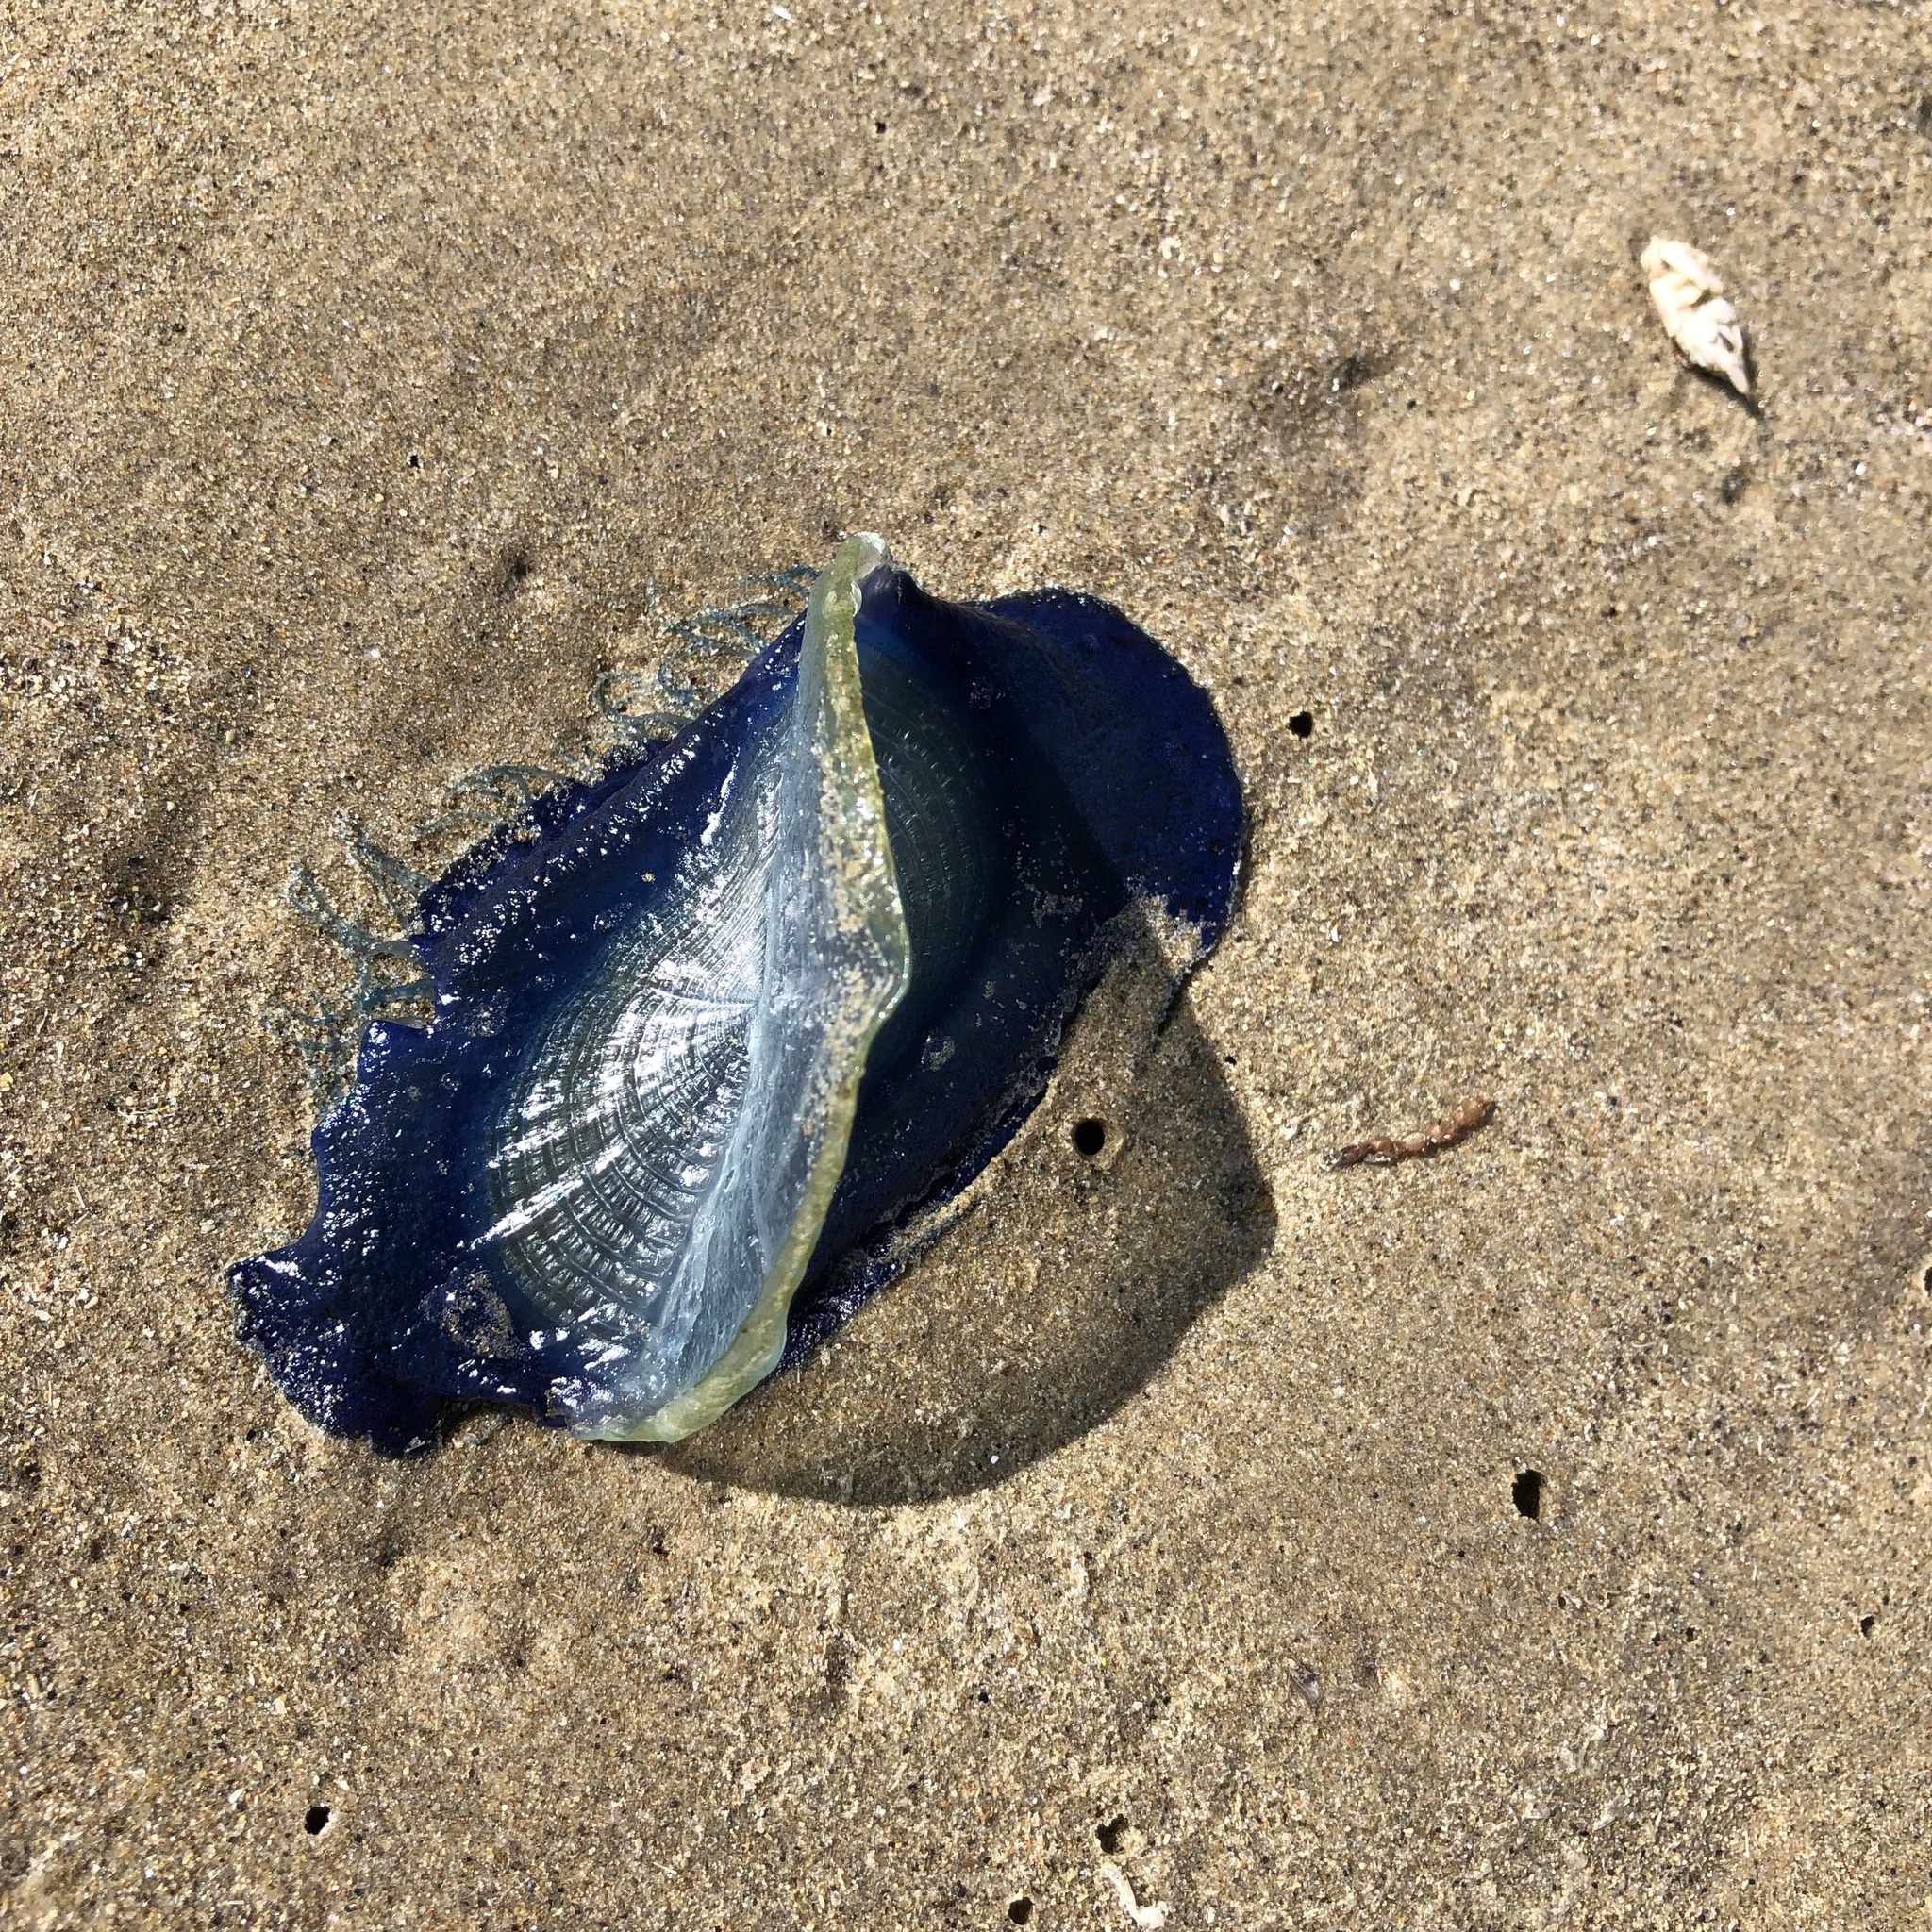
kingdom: Animalia
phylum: Cnidaria
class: Hydrozoa
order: Anthoathecata
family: Porpitidae
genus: Velella
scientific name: Velella velella
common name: By-the-wind-sailor
